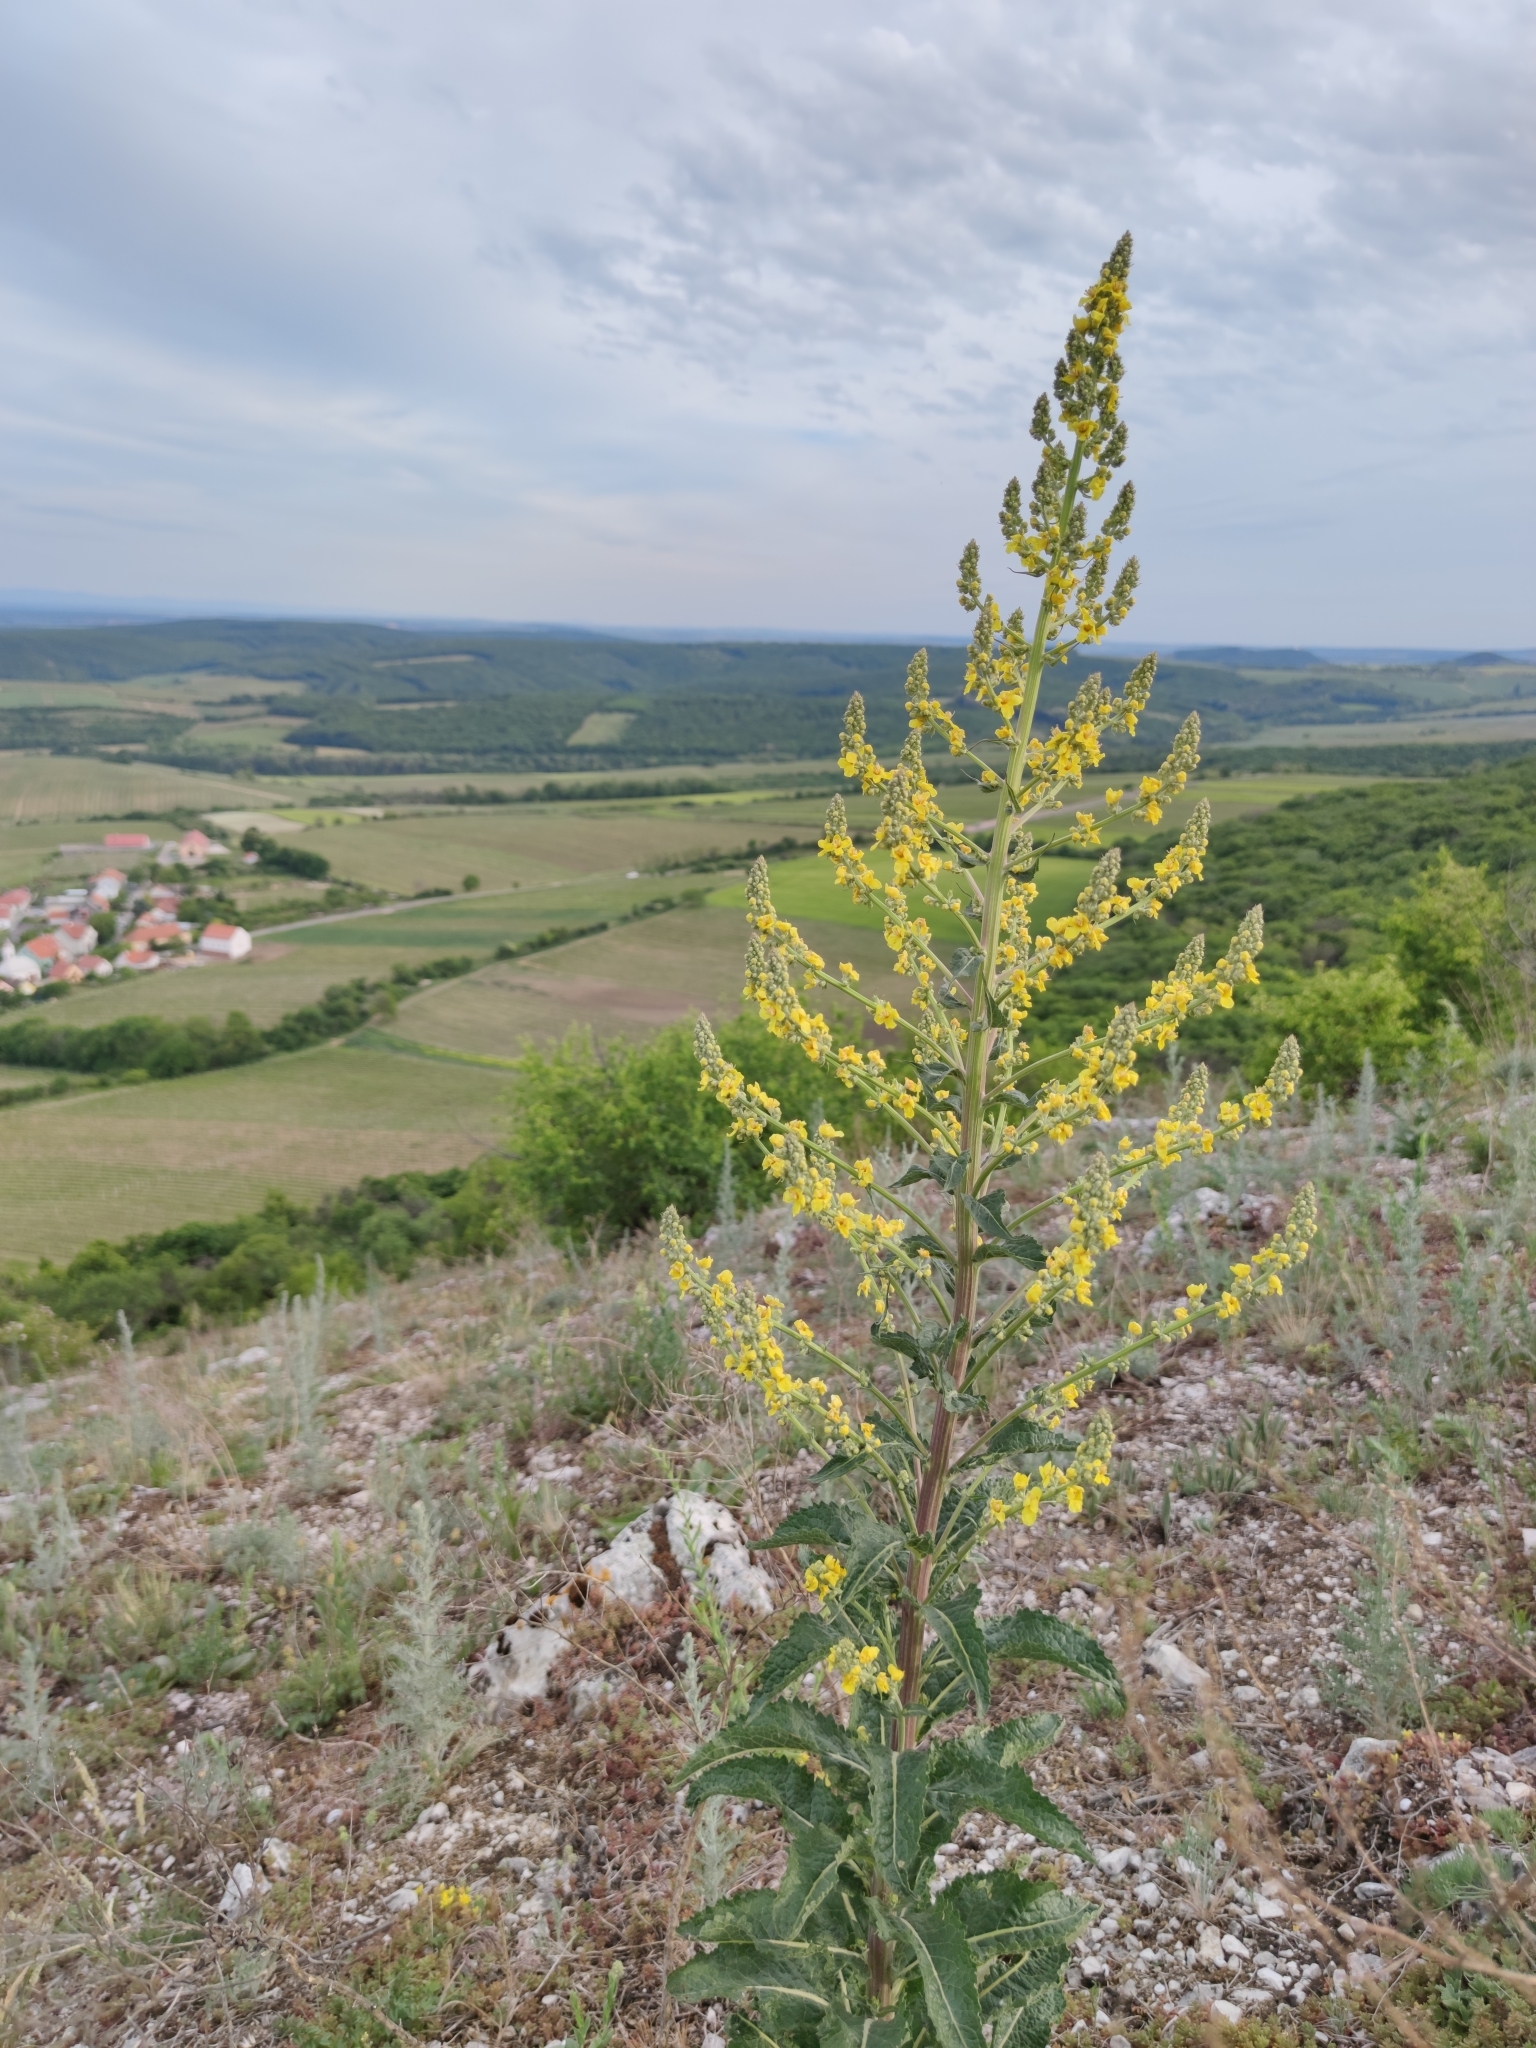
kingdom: Plantae
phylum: Tracheophyta
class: Magnoliopsida
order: Lamiales
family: Scrophulariaceae
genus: Verbascum
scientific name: Verbascum lychnitis
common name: White mullein
